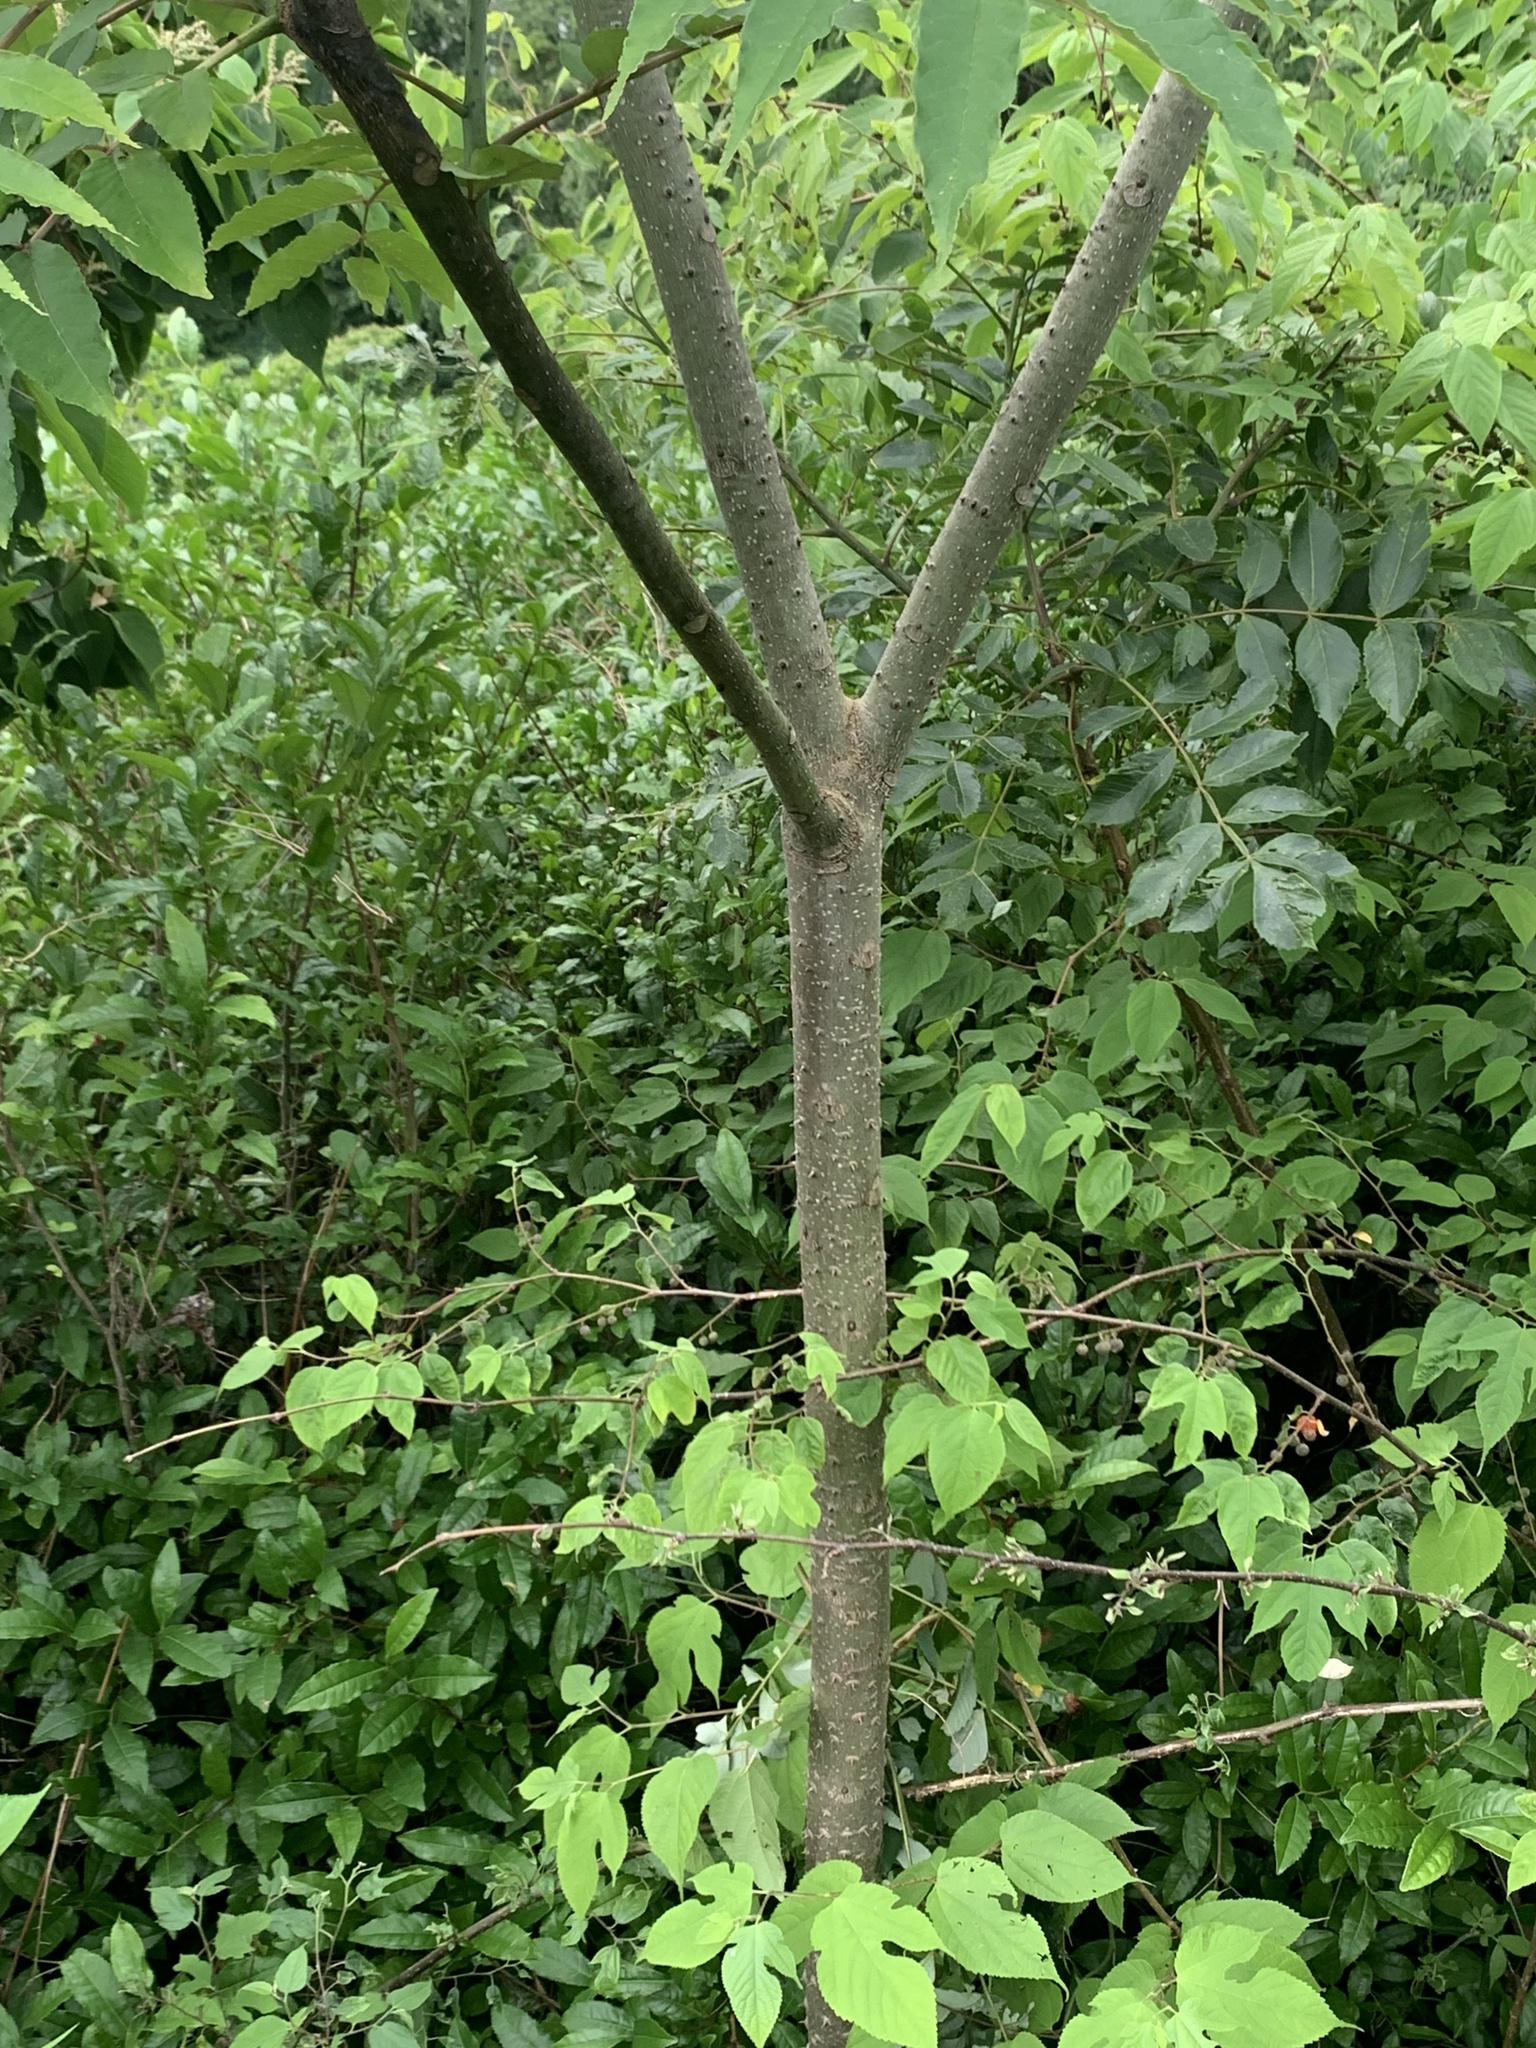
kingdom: Plantae
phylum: Tracheophyta
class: Magnoliopsida
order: Sapindales
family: Rutaceae
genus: Zanthoxylum
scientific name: Zanthoxylum ailanthoides
